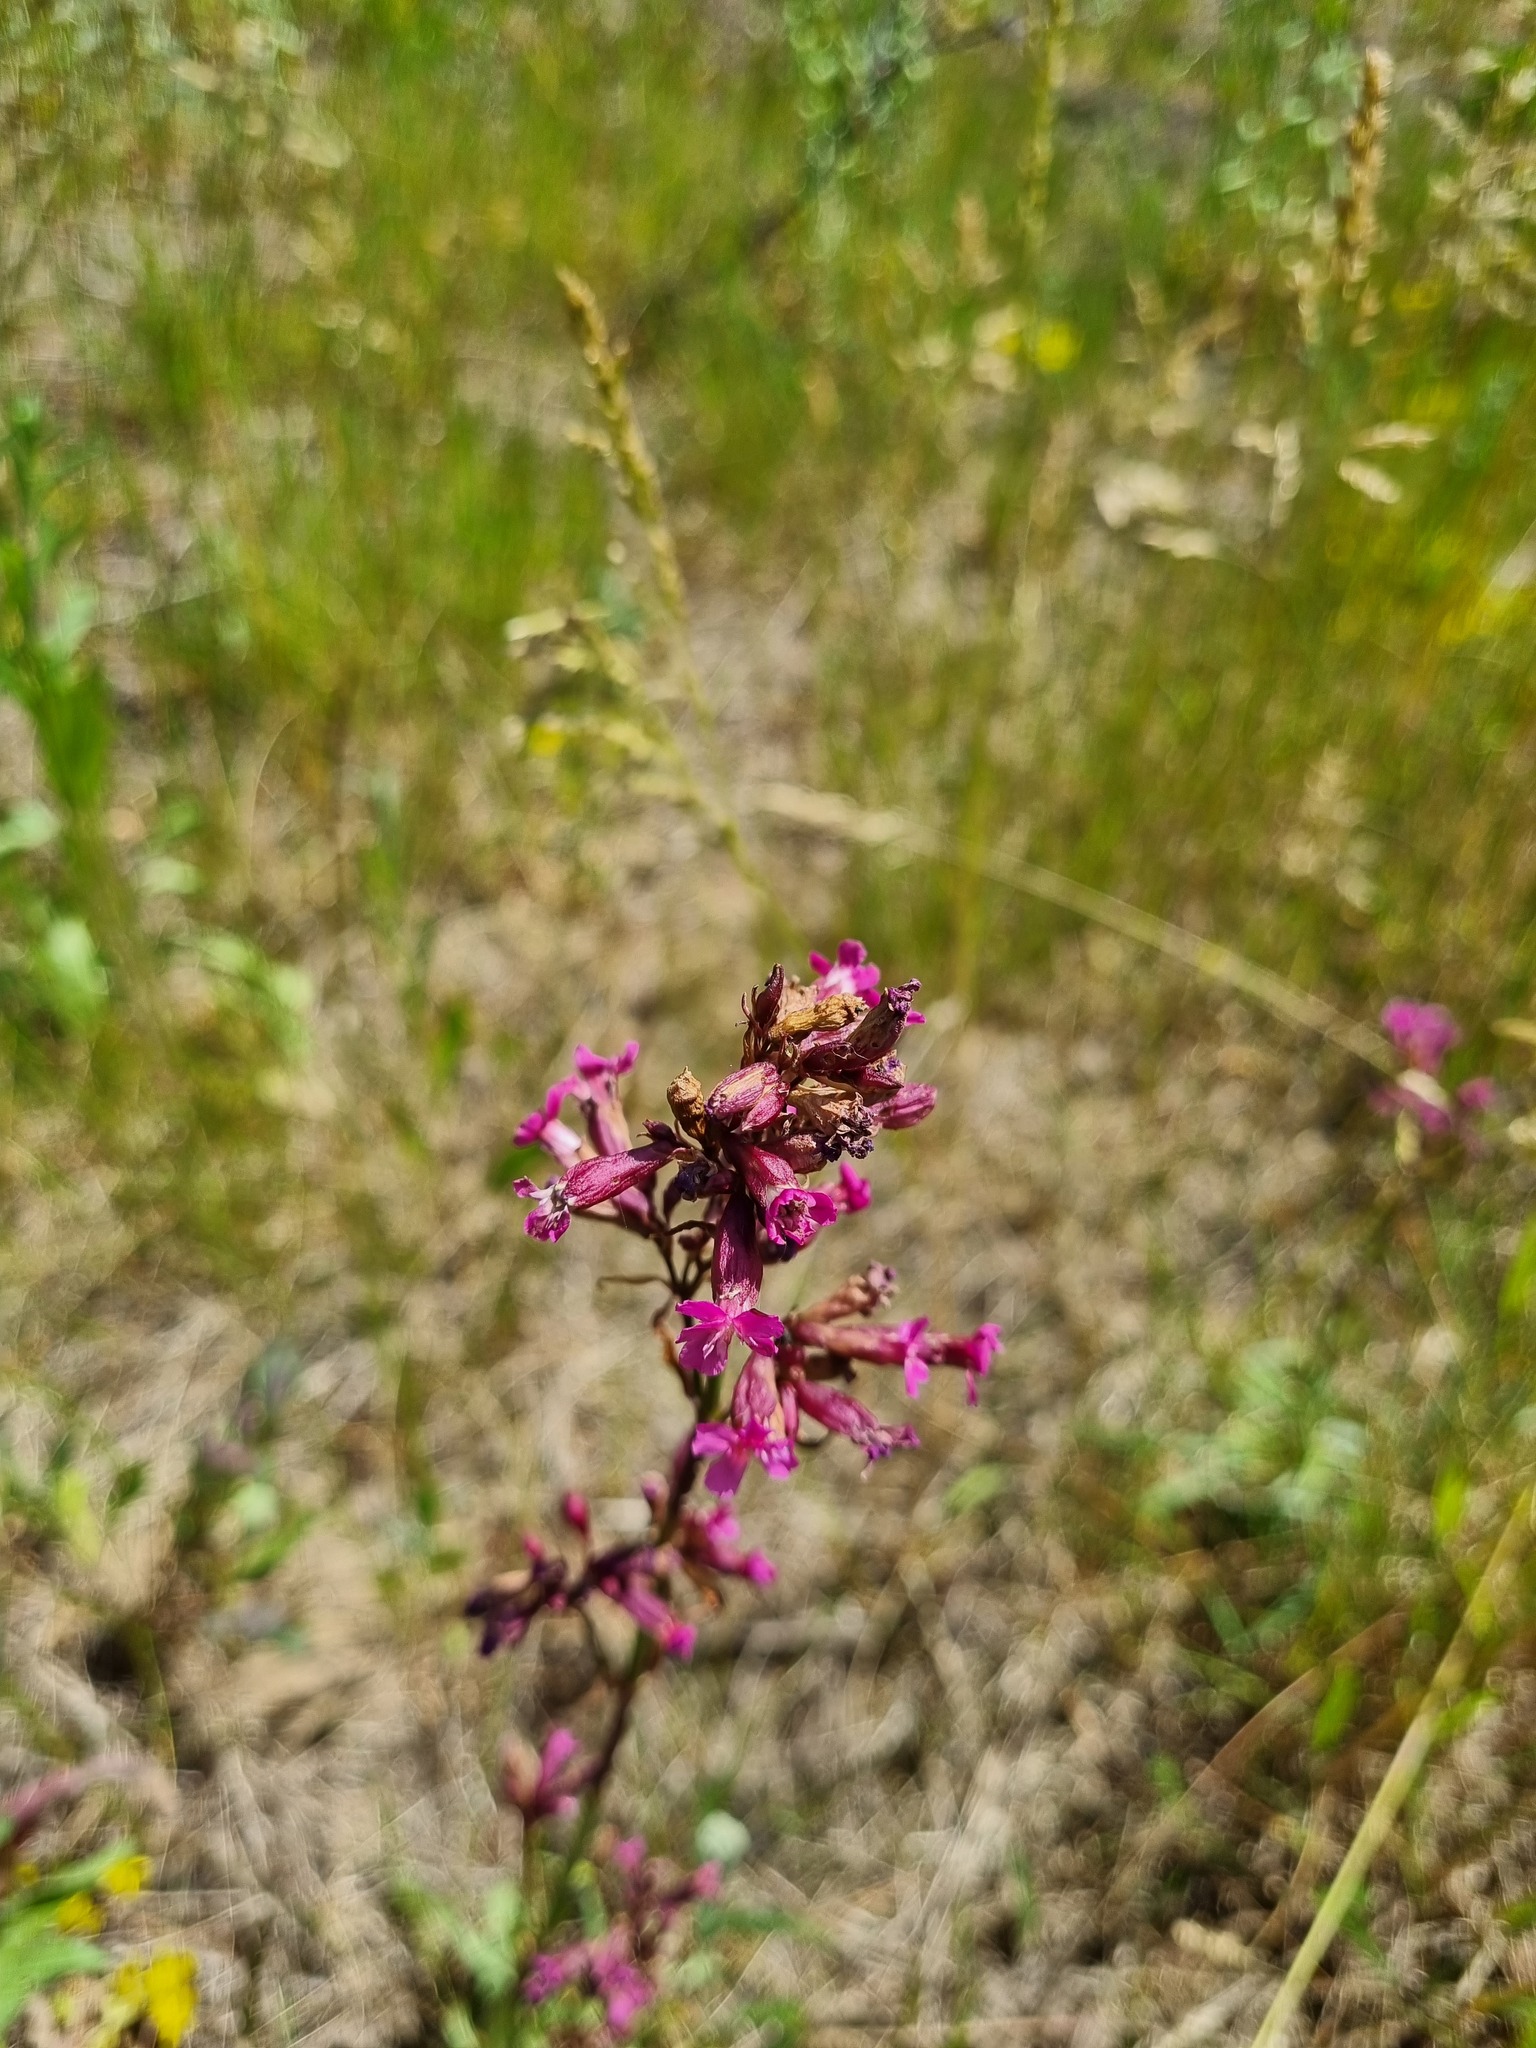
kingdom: Plantae
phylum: Tracheophyta
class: Magnoliopsida
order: Caryophyllales
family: Caryophyllaceae
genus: Viscaria
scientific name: Viscaria vulgaris
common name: Clammy campion
